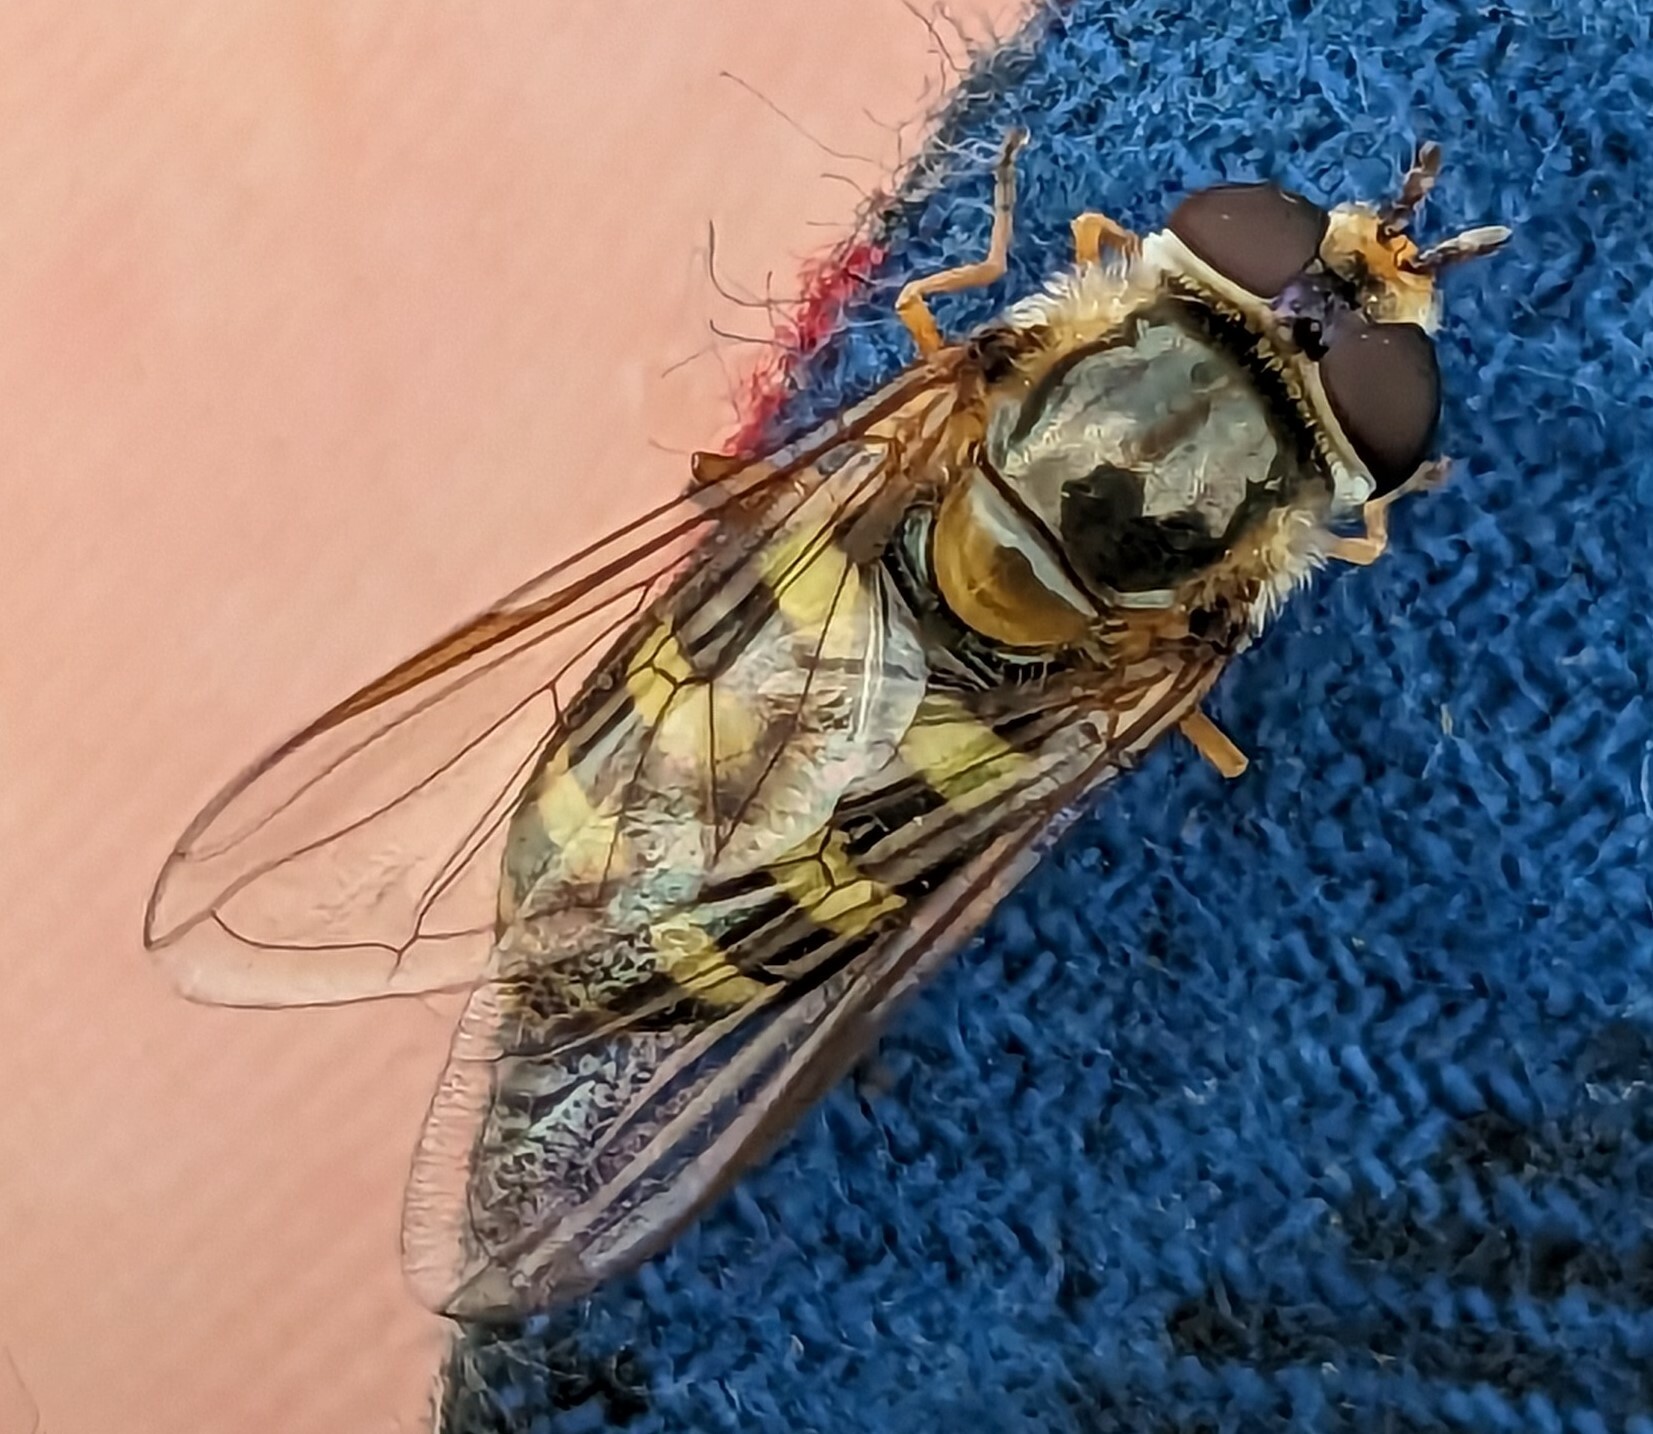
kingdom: Animalia
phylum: Arthropoda
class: Insecta
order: Diptera
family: Syrphidae
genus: Eupeodes
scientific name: Eupeodes luniger
